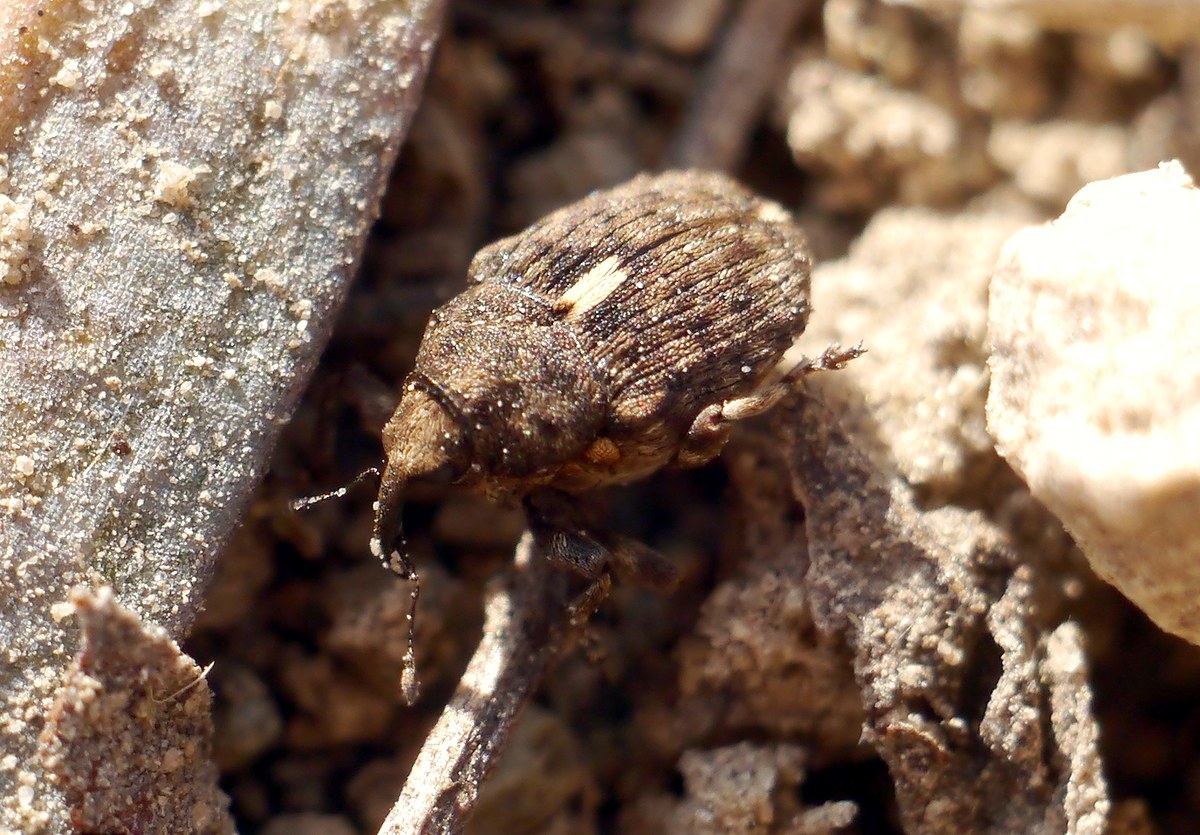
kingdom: Animalia
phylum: Arthropoda
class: Insecta
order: Coleoptera
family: Curculionidae
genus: Ethelcus
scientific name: Ethelcus denticulatus
